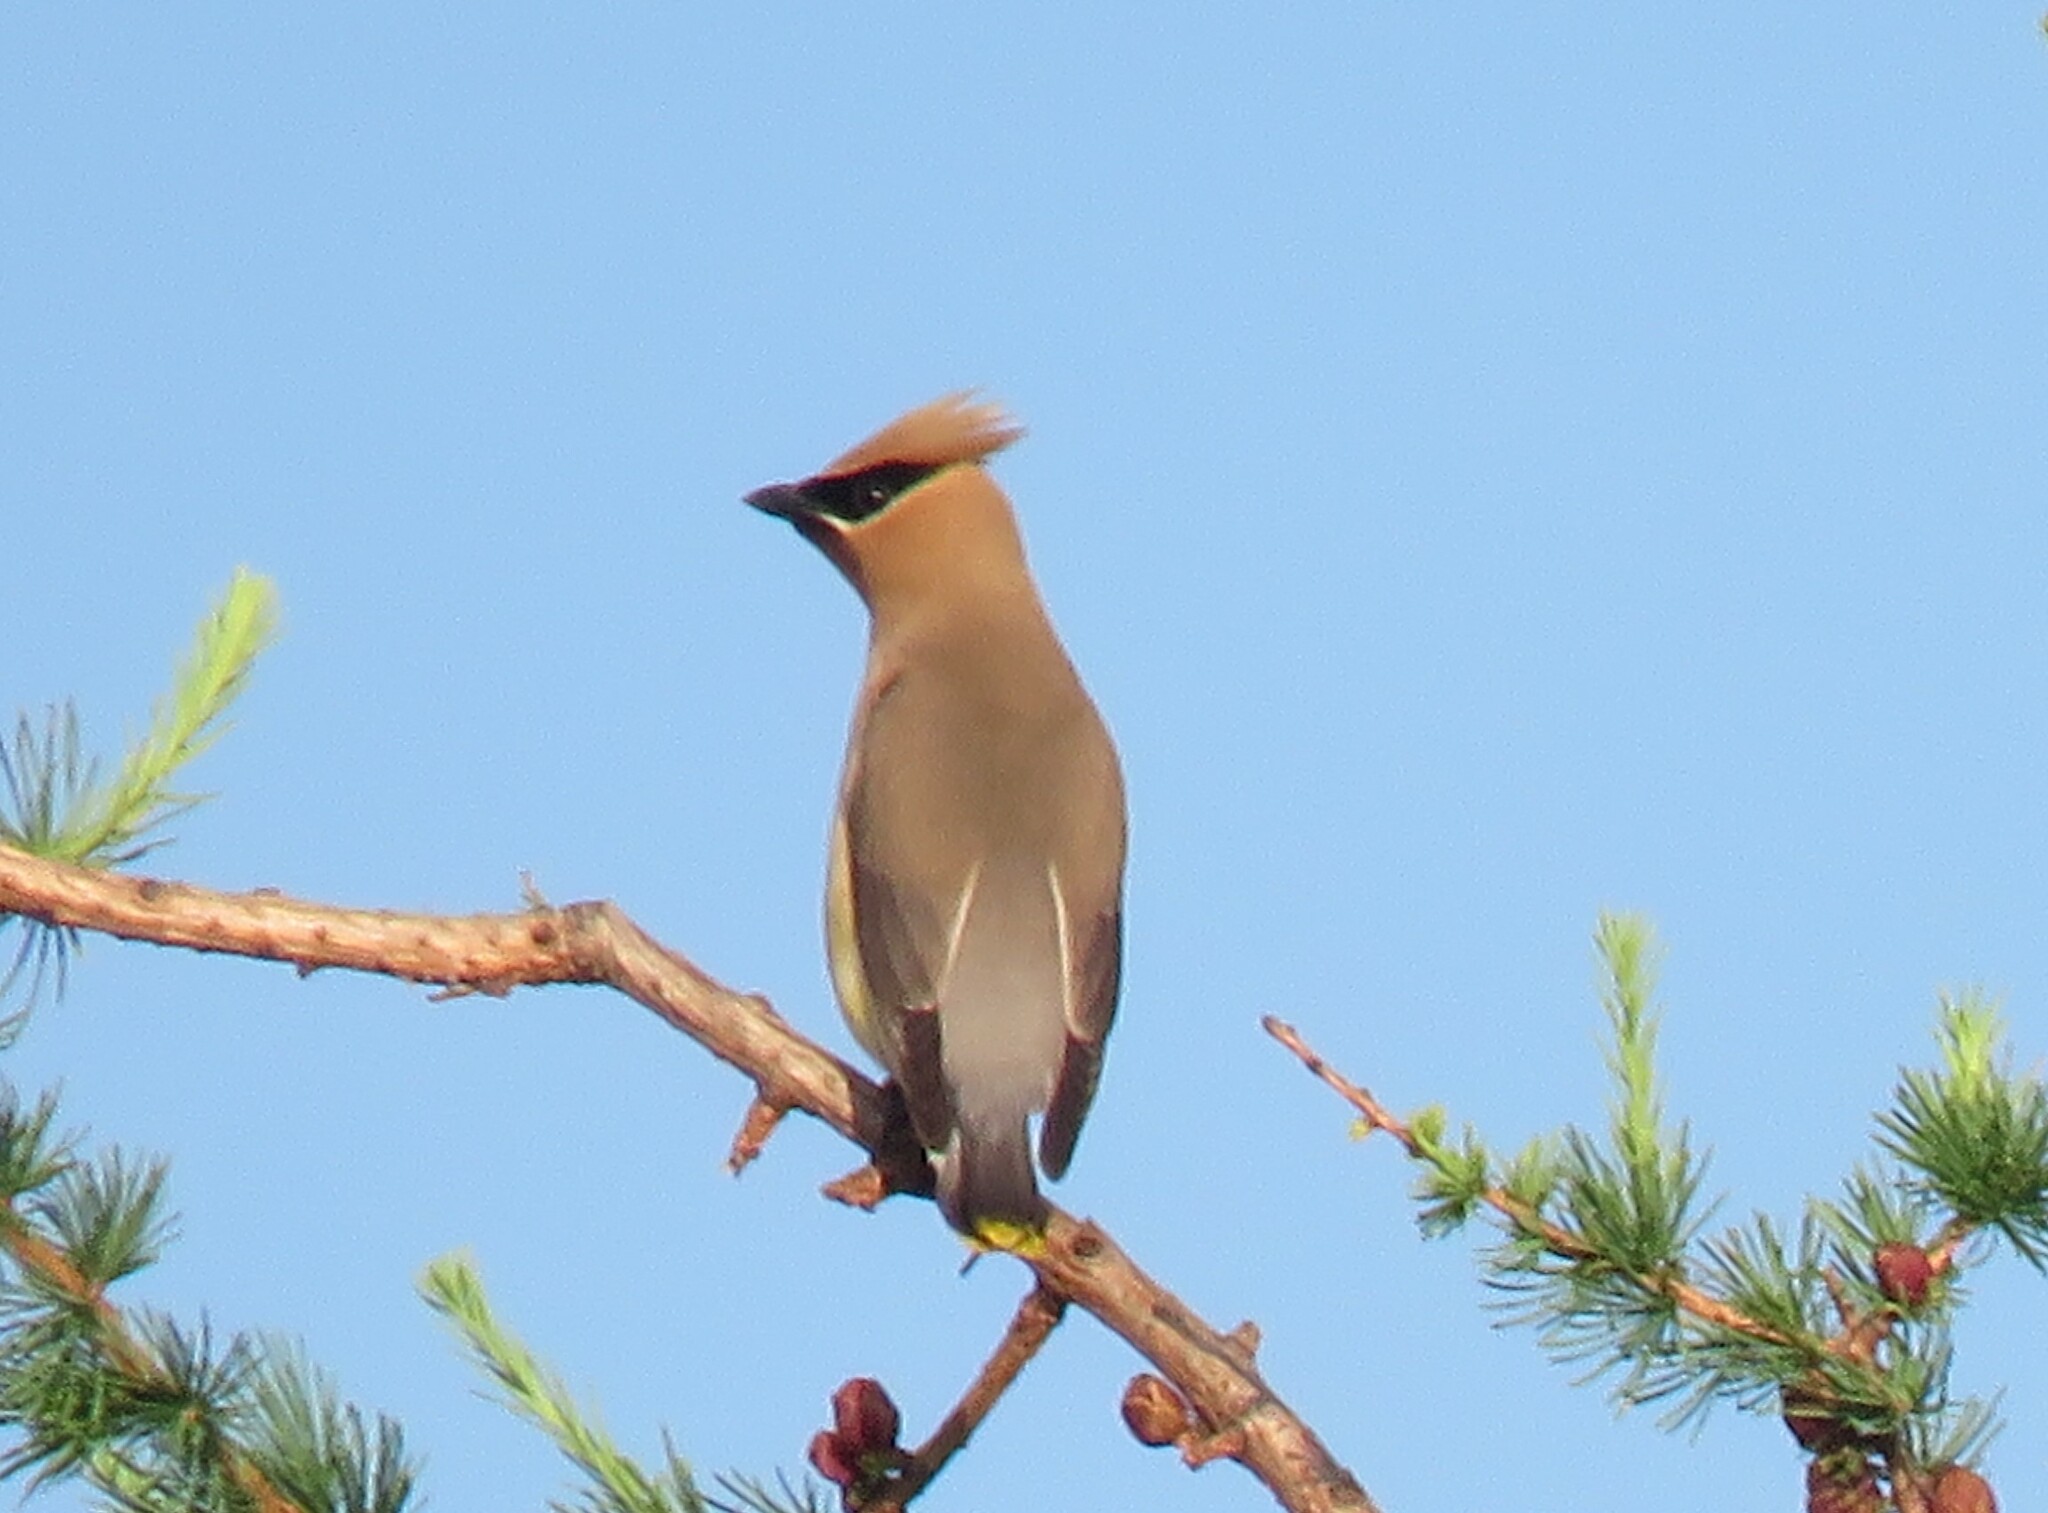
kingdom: Animalia
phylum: Chordata
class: Aves
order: Passeriformes
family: Bombycillidae
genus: Bombycilla
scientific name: Bombycilla cedrorum
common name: Cedar waxwing
